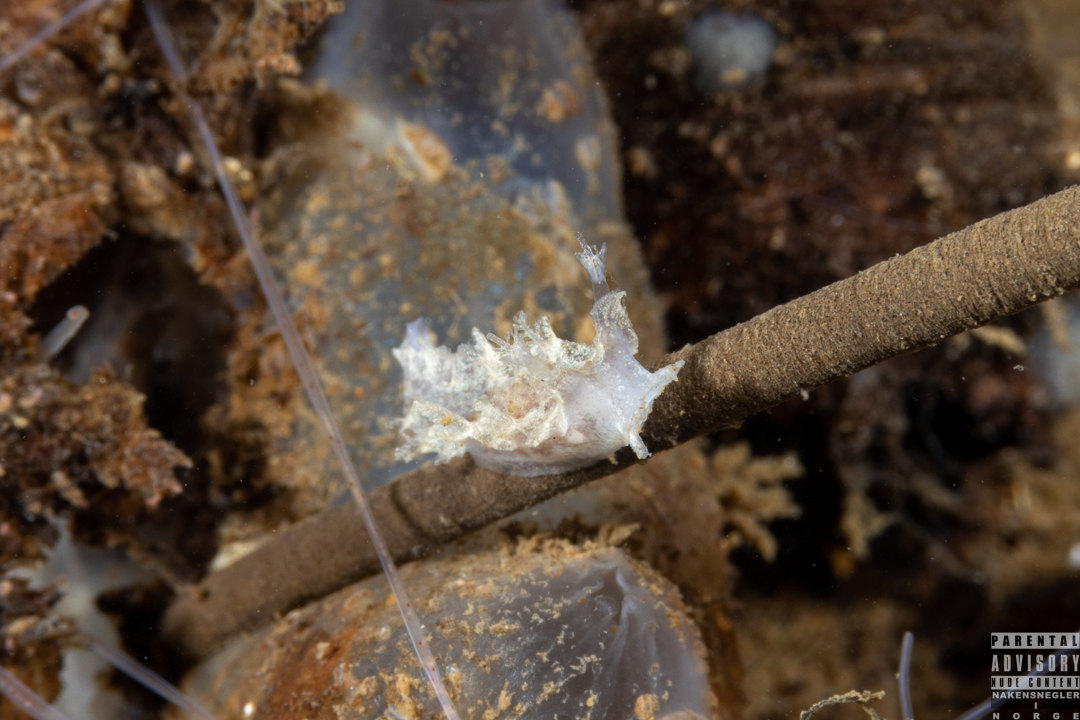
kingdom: Animalia
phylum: Mollusca
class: Gastropoda
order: Nudibranchia
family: Tritoniidae
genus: Duvaucelia
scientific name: Duvaucelia plebeia
